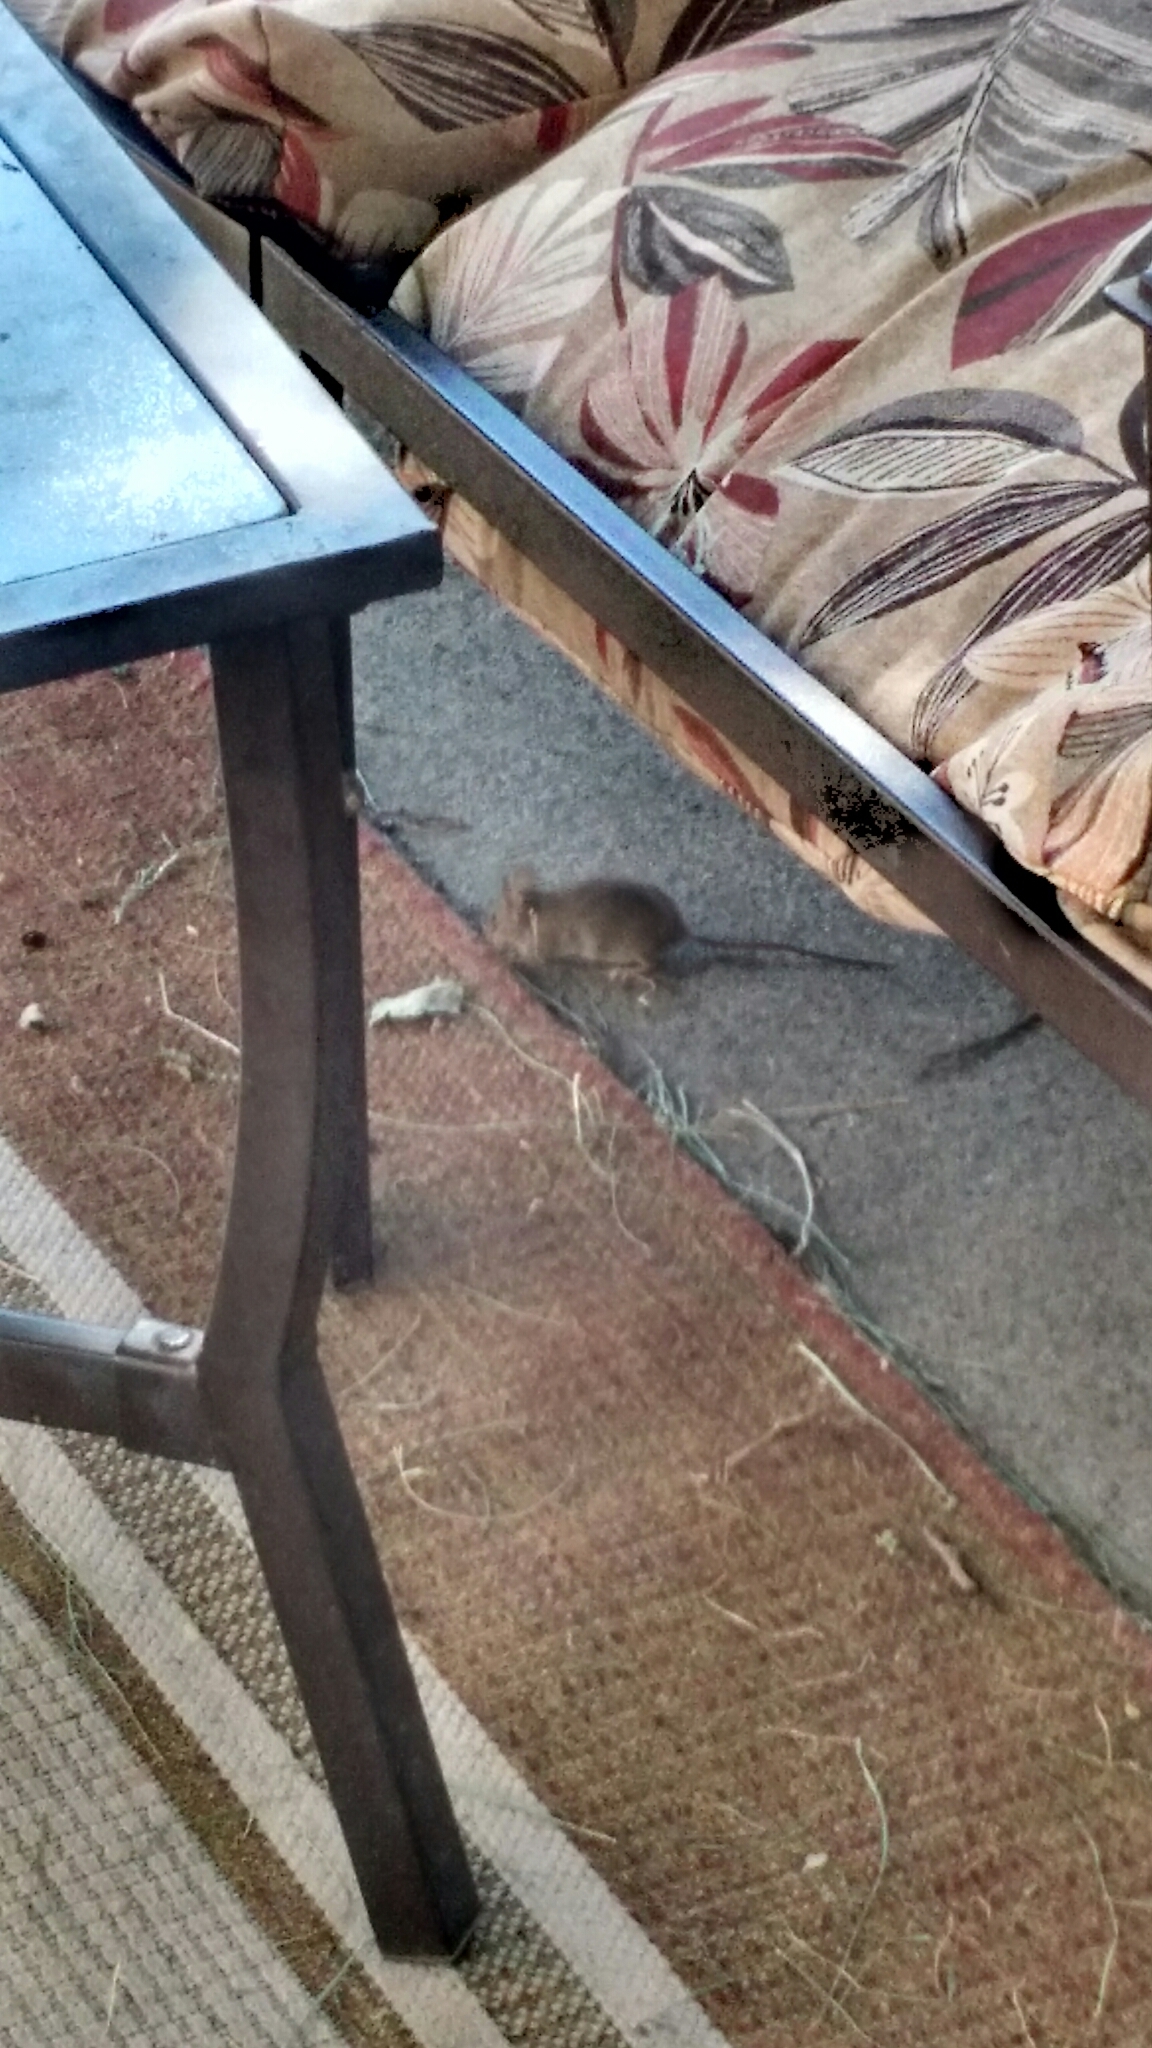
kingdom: Animalia
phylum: Chordata
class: Mammalia
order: Rodentia
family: Muridae
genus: Mus
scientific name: Mus musculus
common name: House mouse
